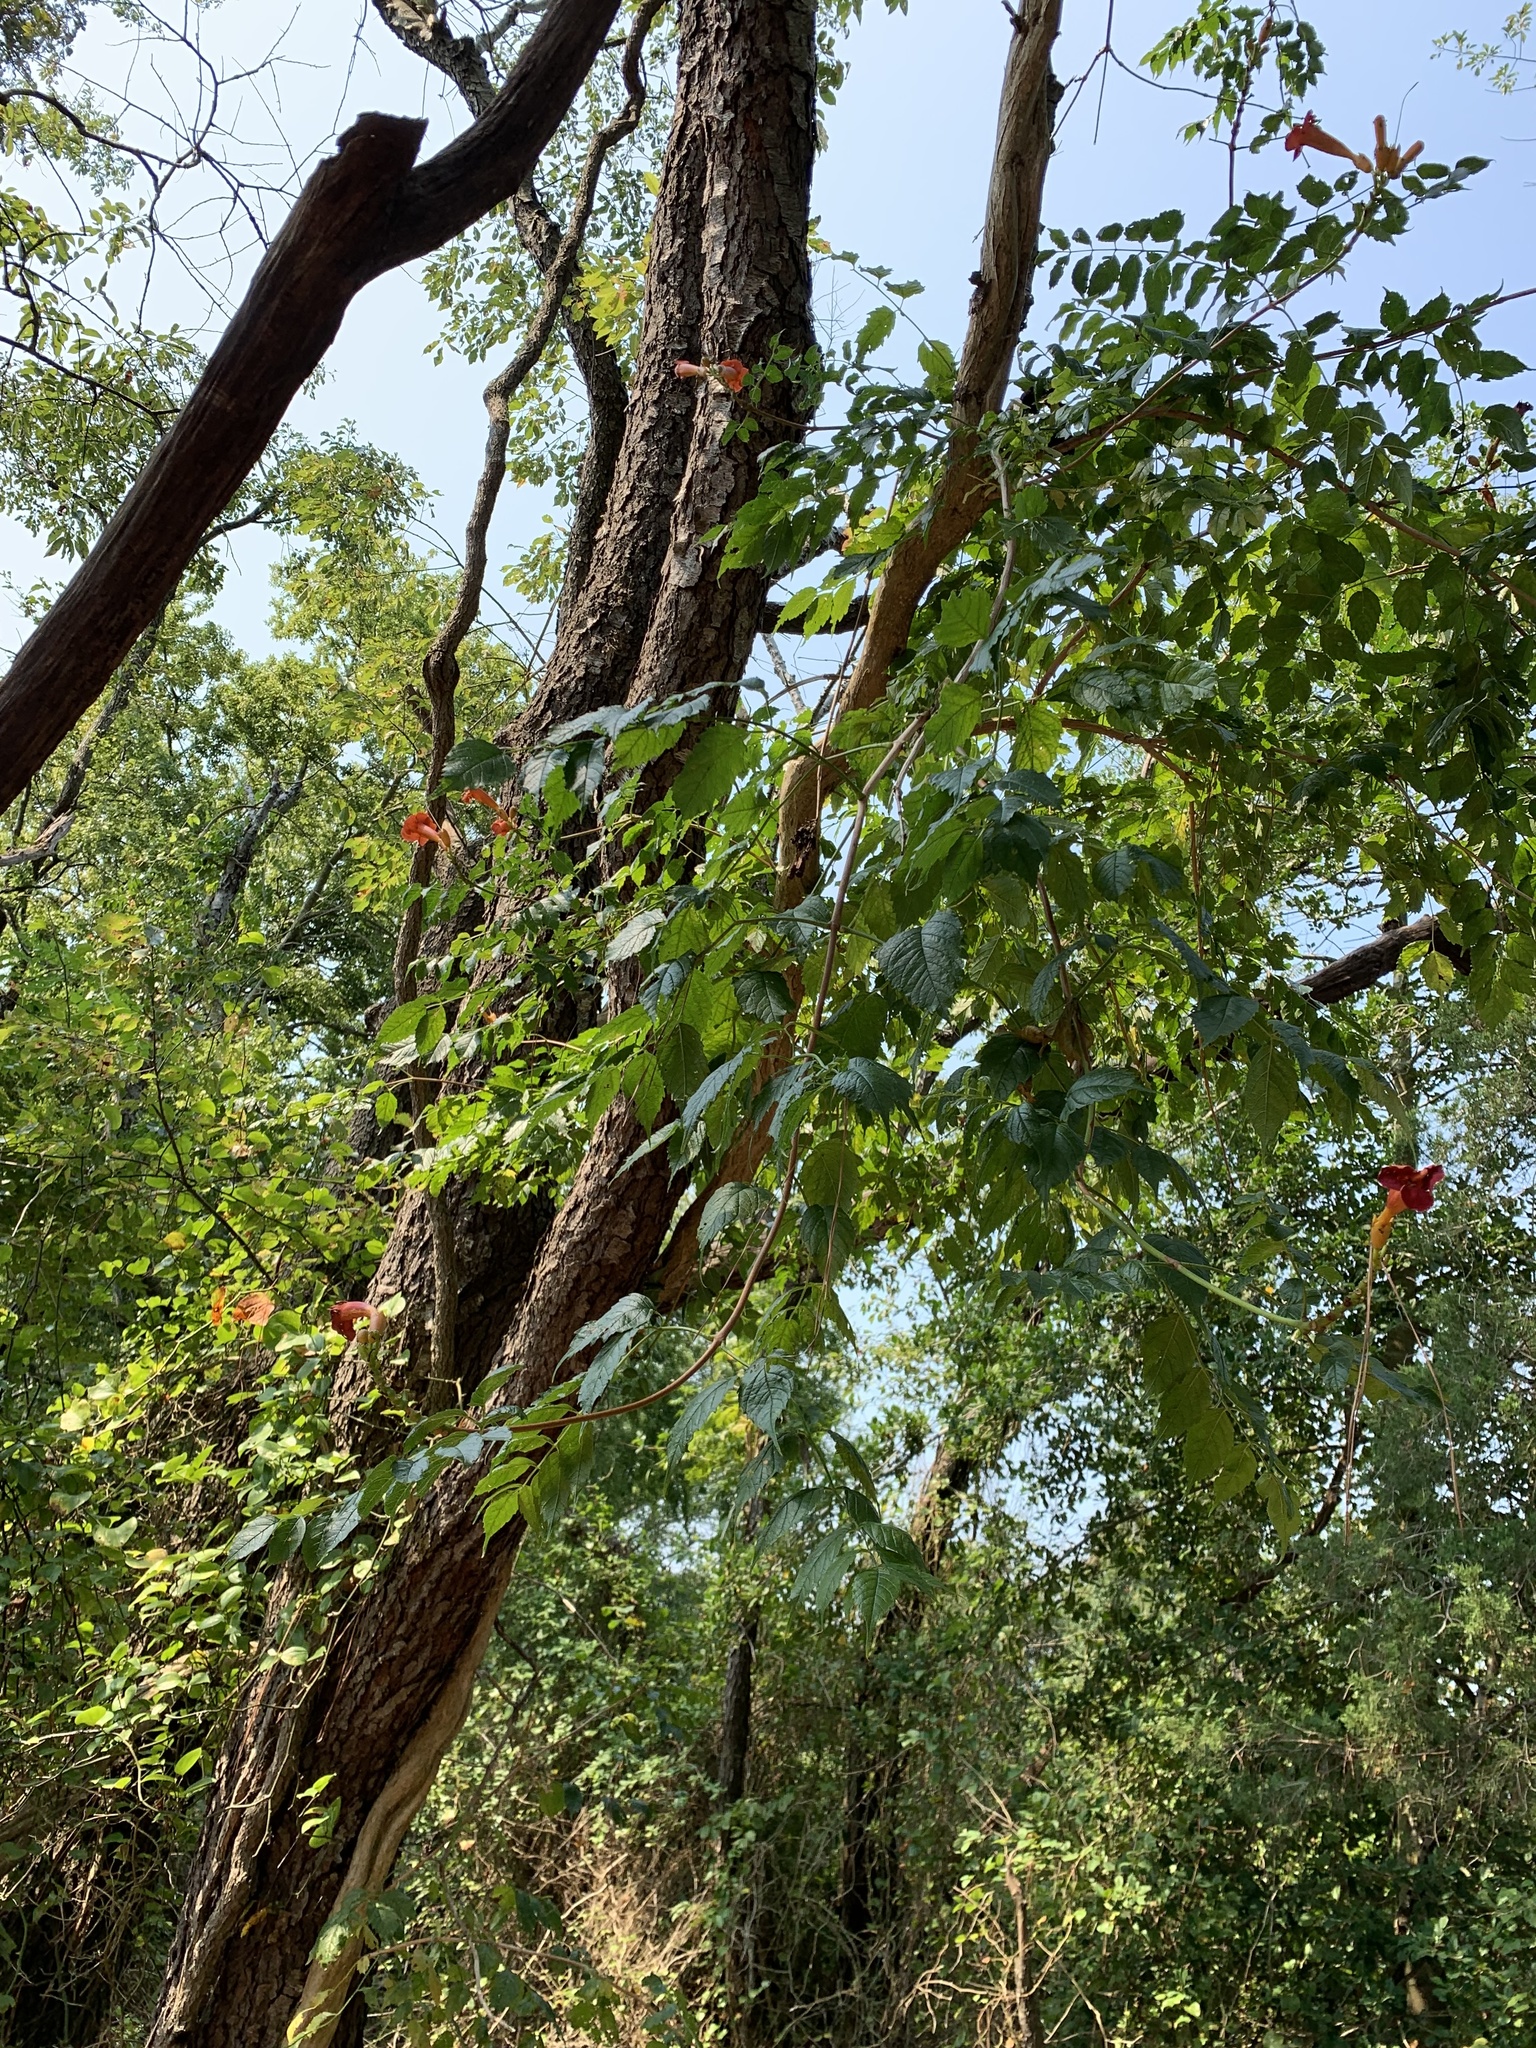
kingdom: Plantae
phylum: Tracheophyta
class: Magnoliopsida
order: Lamiales
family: Bignoniaceae
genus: Campsis
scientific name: Campsis radicans
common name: Trumpet-creeper
